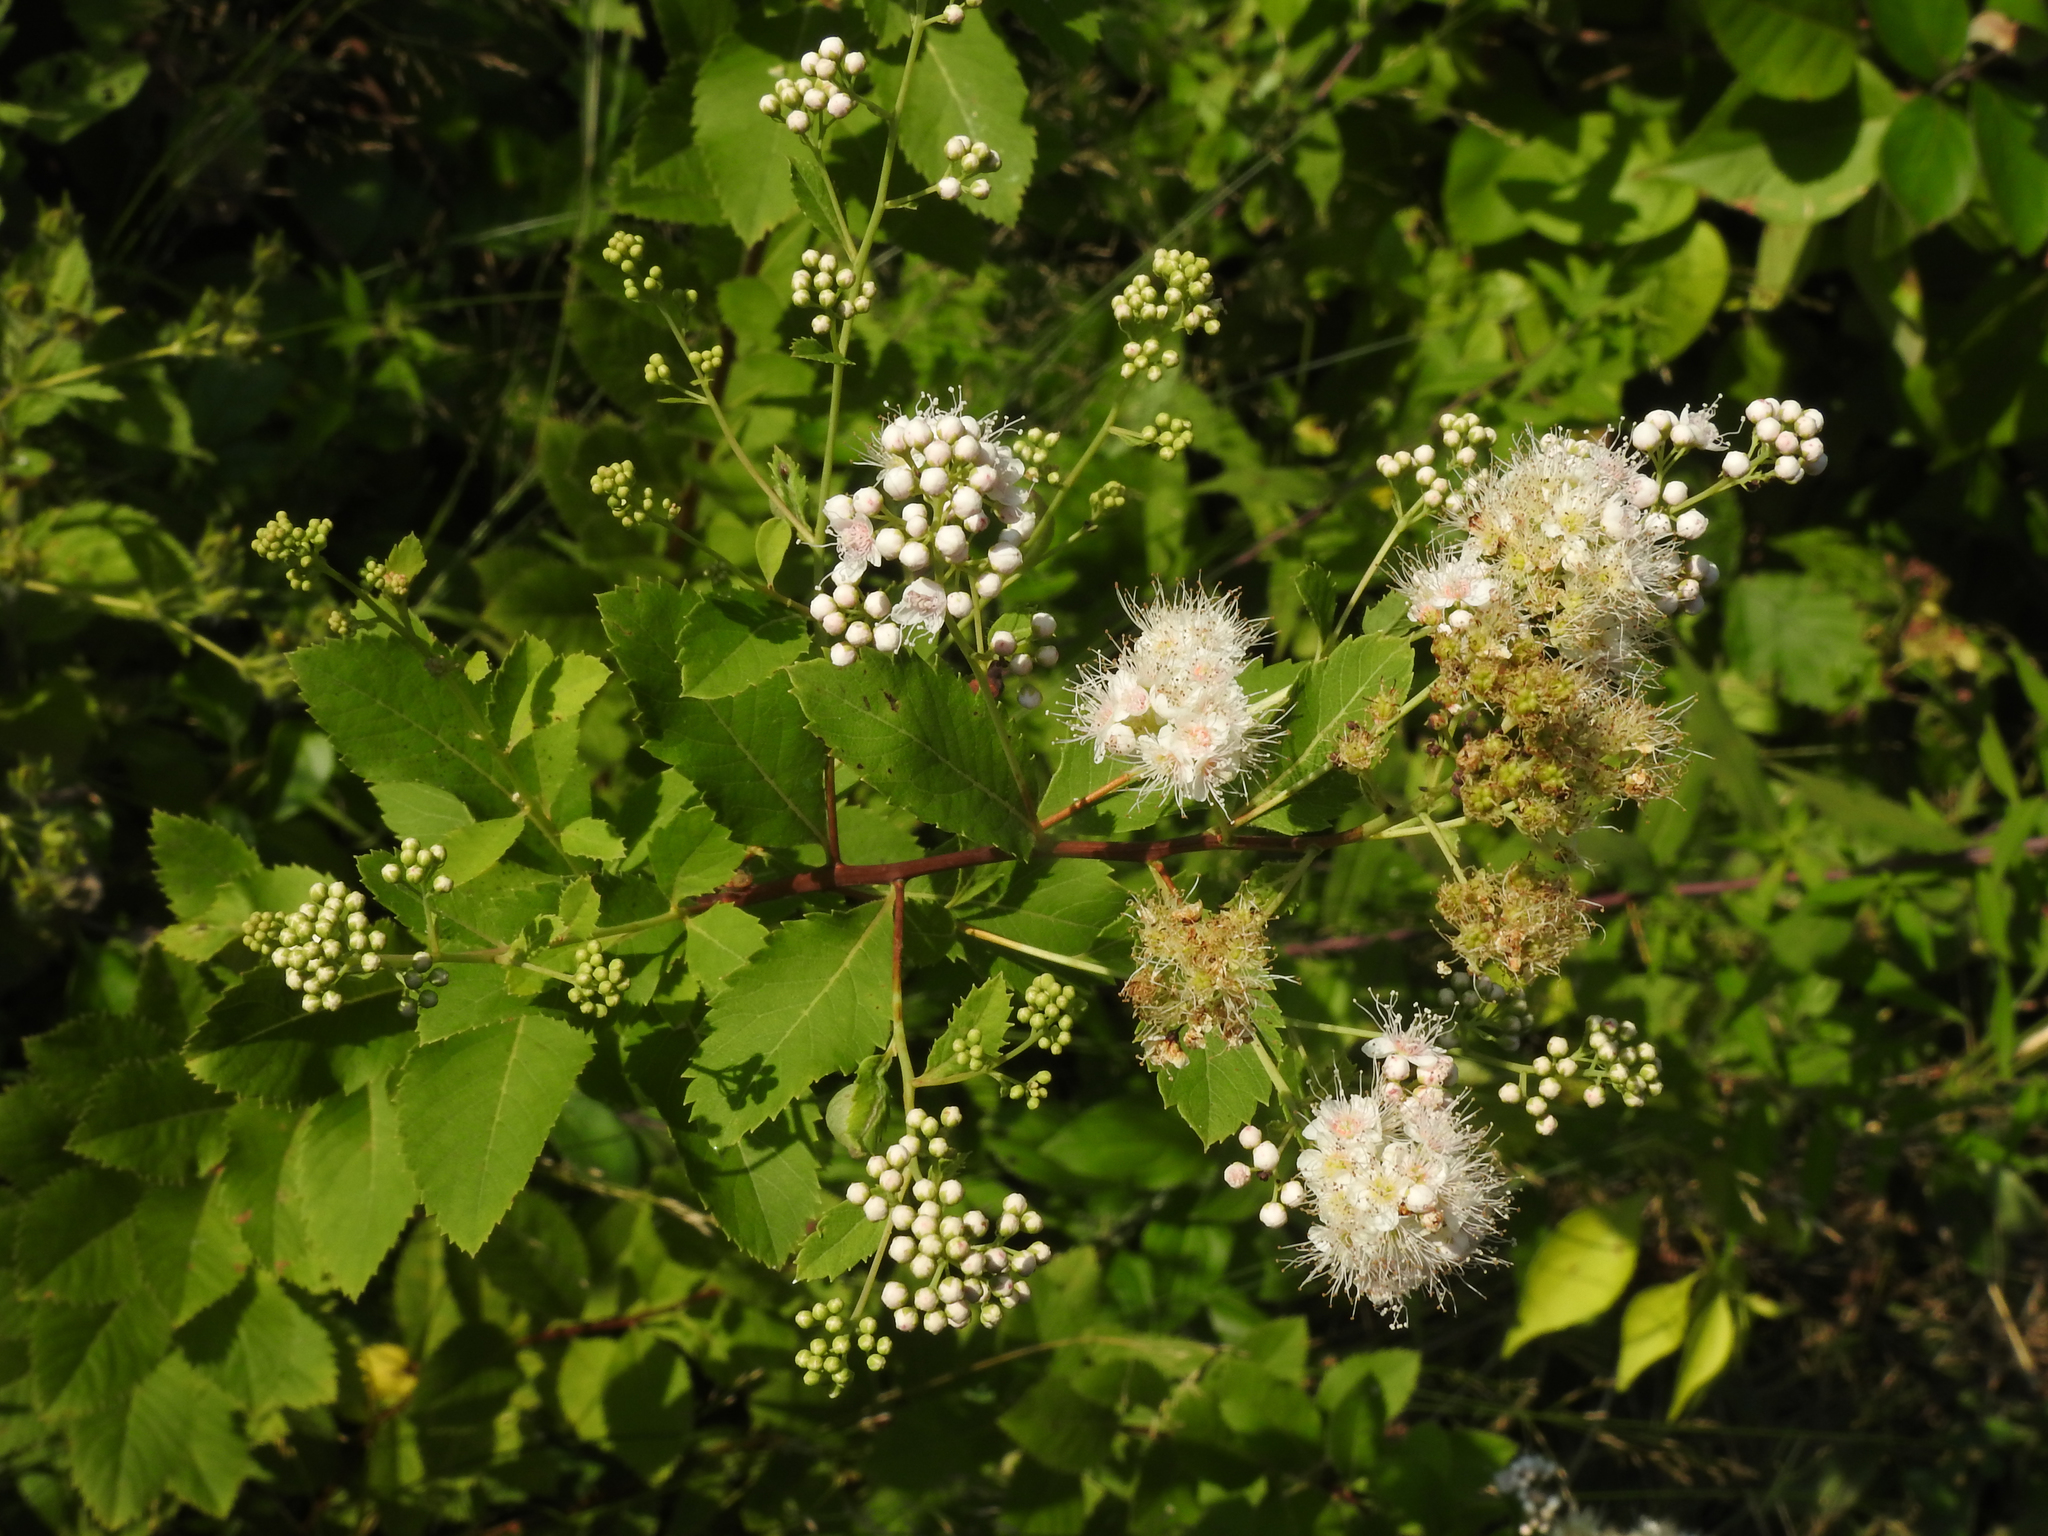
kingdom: Plantae
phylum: Tracheophyta
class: Magnoliopsida
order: Rosales
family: Rosaceae
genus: Spiraea
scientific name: Spiraea alba
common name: Pale bridewort
